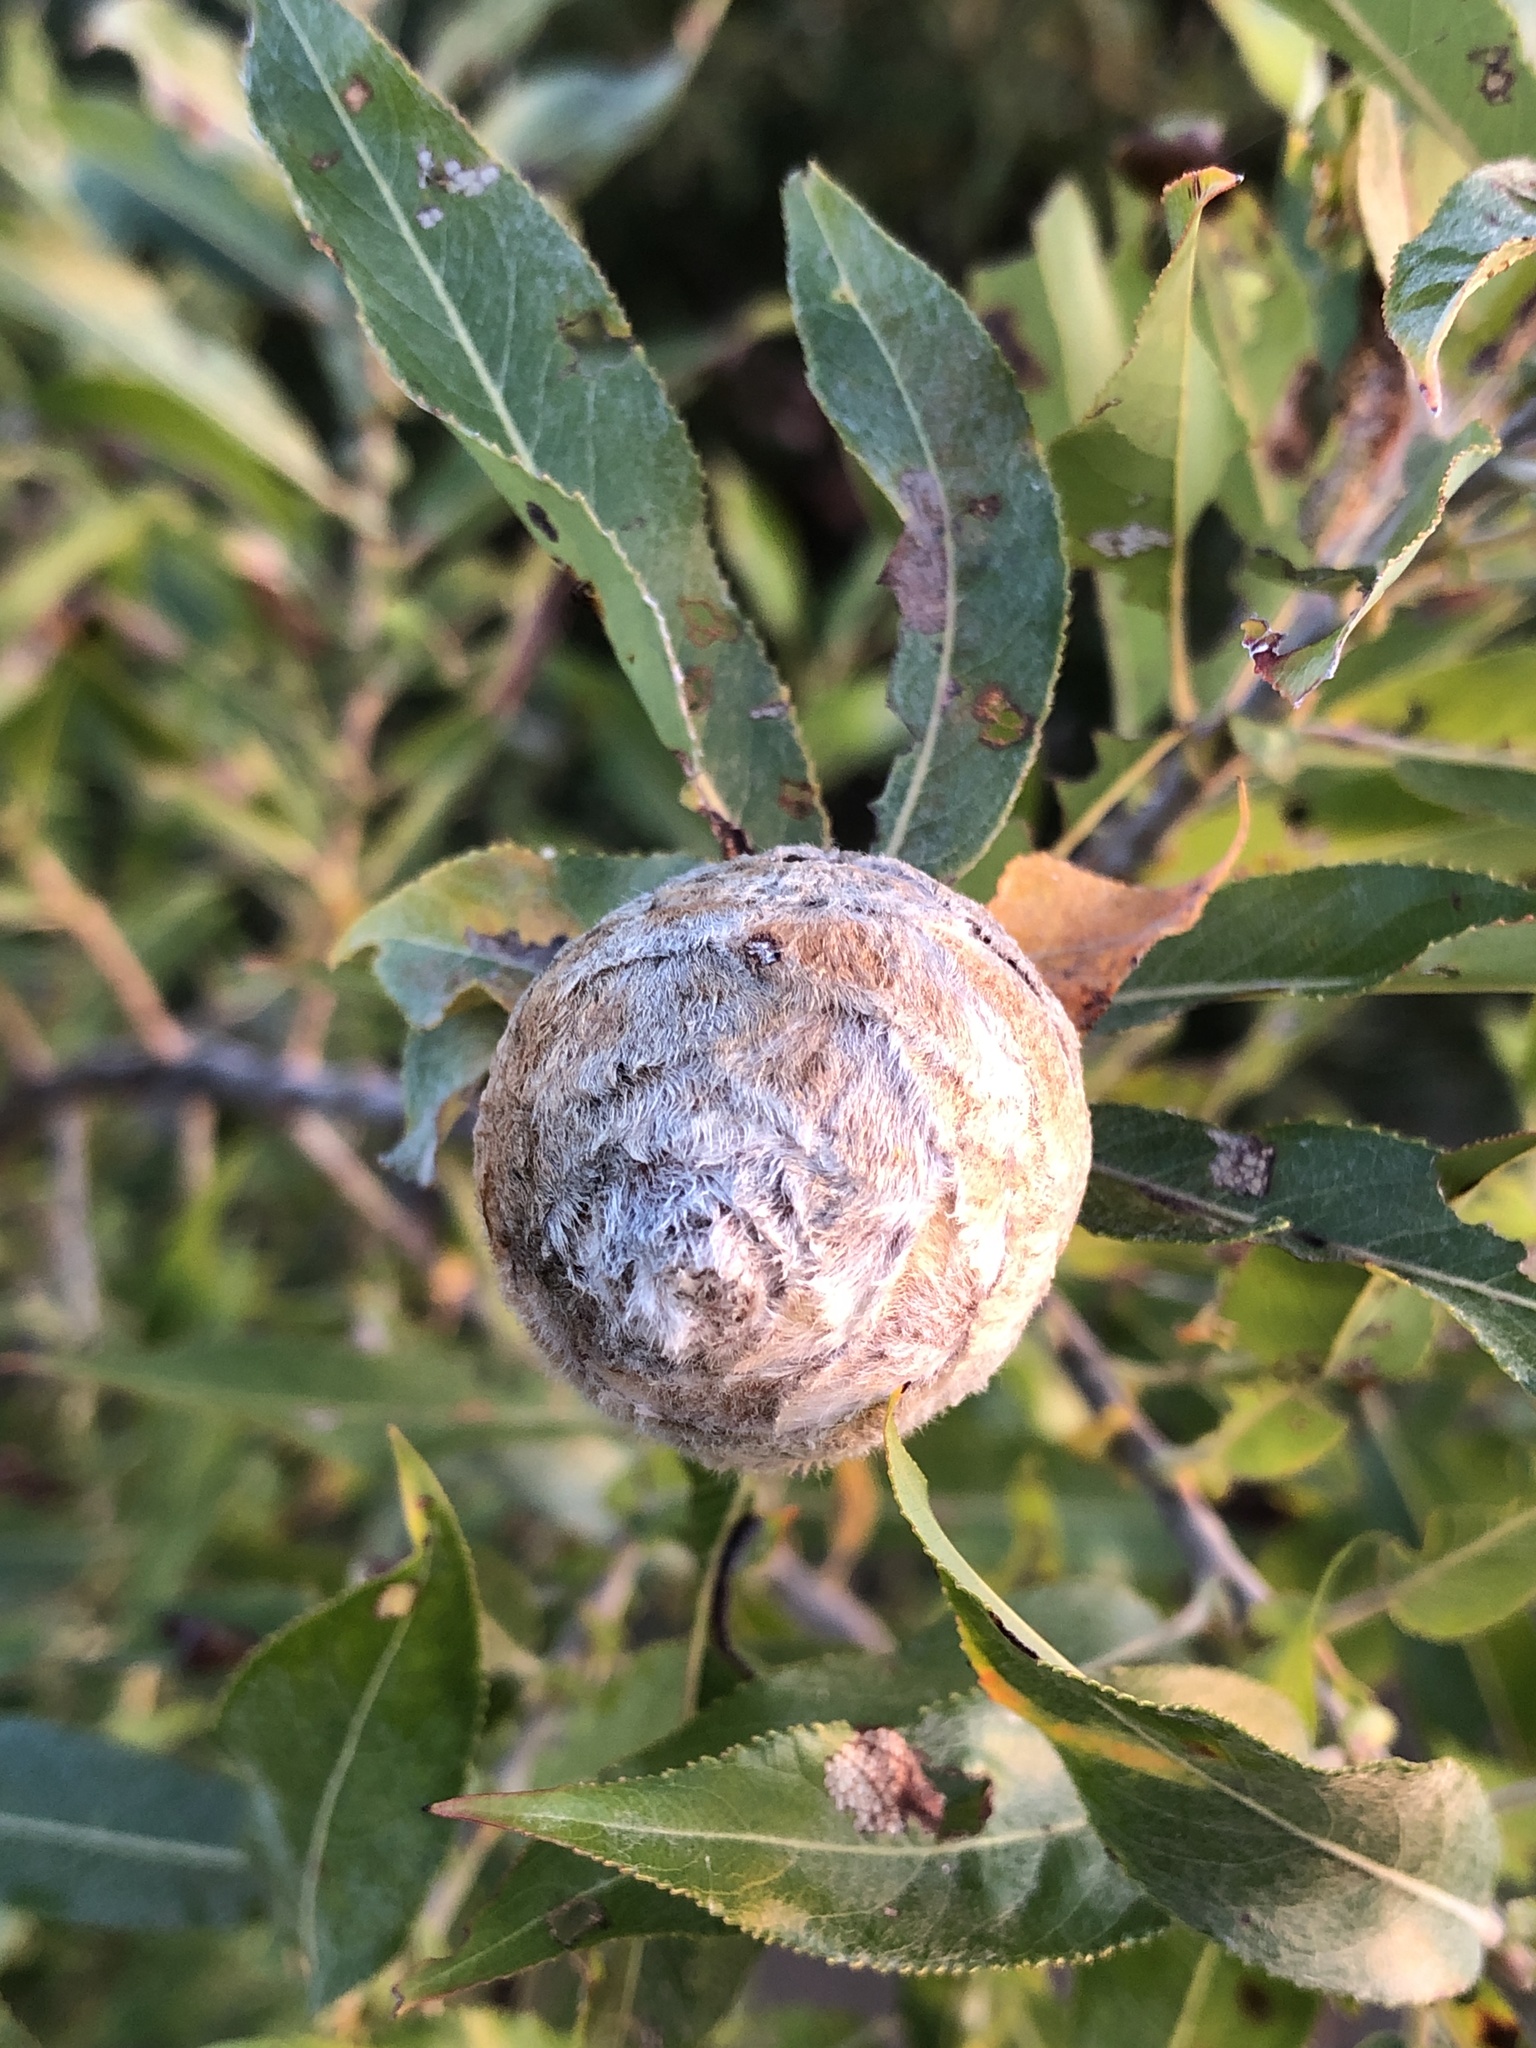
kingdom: Animalia
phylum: Arthropoda
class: Insecta
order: Diptera
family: Cecidomyiidae
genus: Rabdophaga
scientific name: Rabdophaga strobiloides
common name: Willow pinecone gall midge
